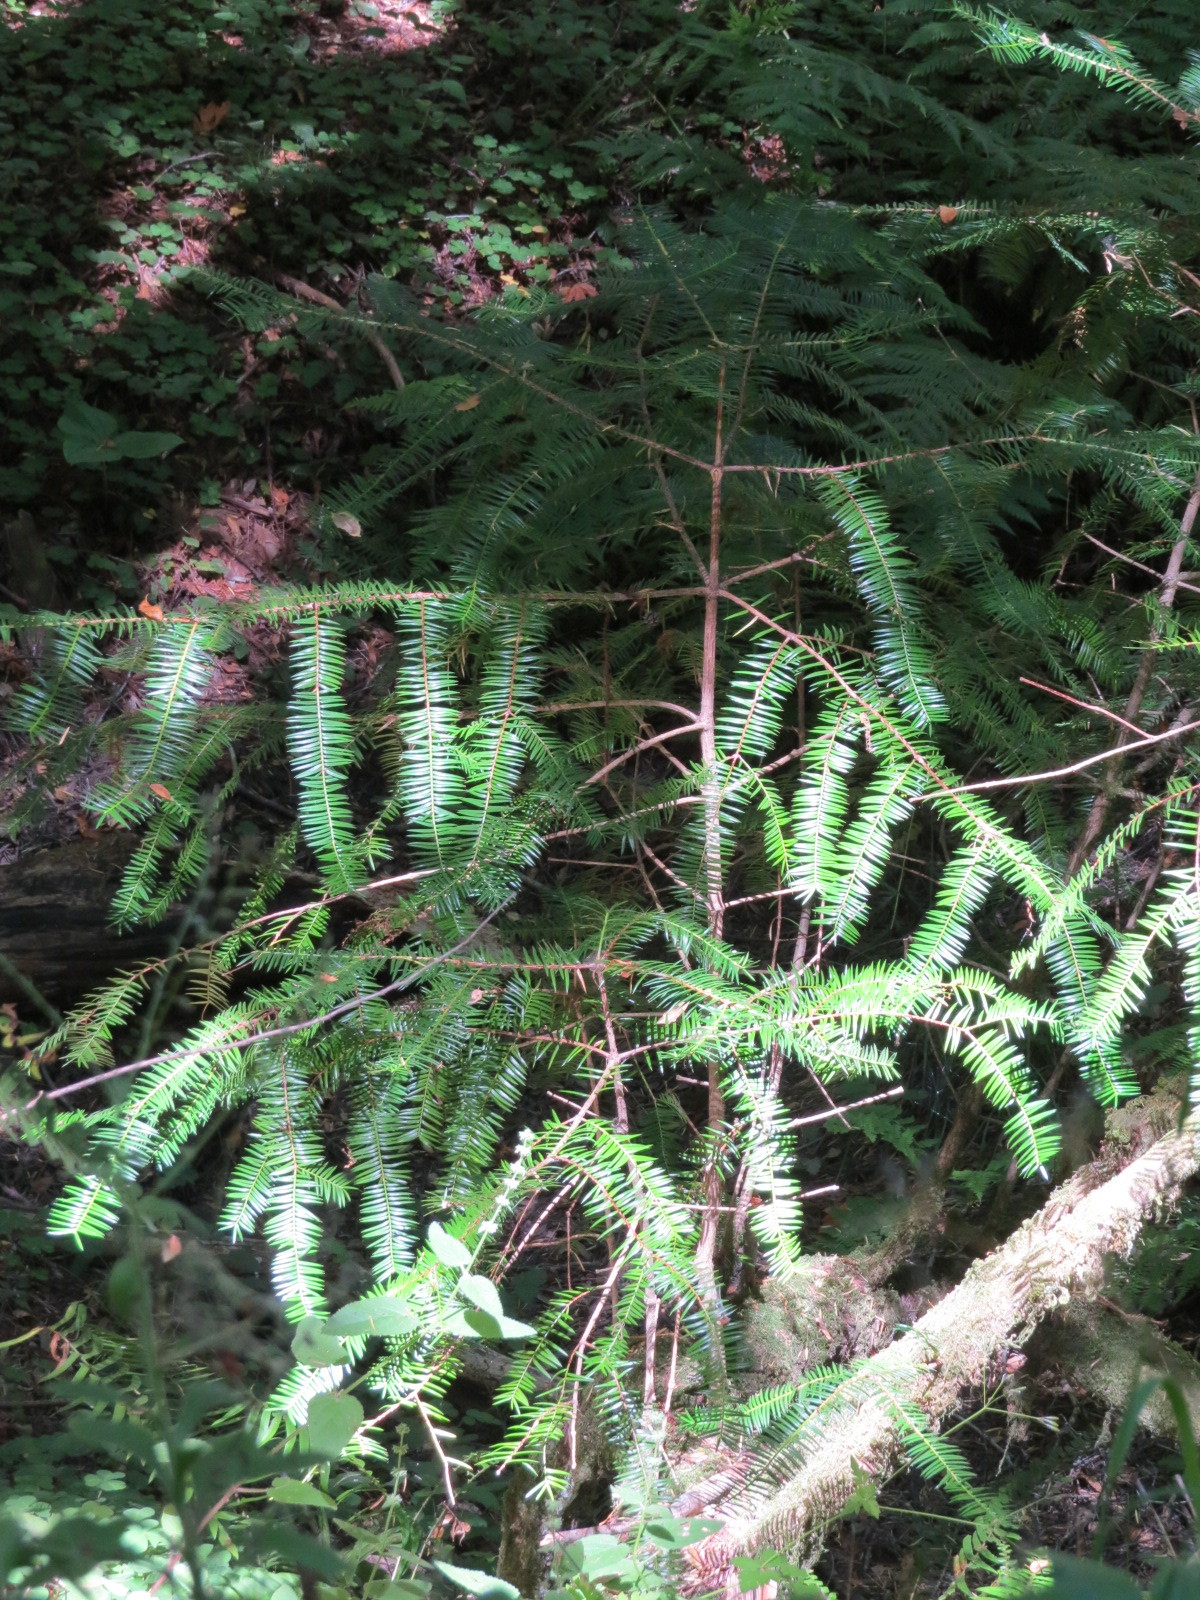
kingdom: Plantae
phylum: Tracheophyta
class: Pinopsida
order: Pinales
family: Taxaceae
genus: Torreya
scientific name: Torreya californica
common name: California torreya
